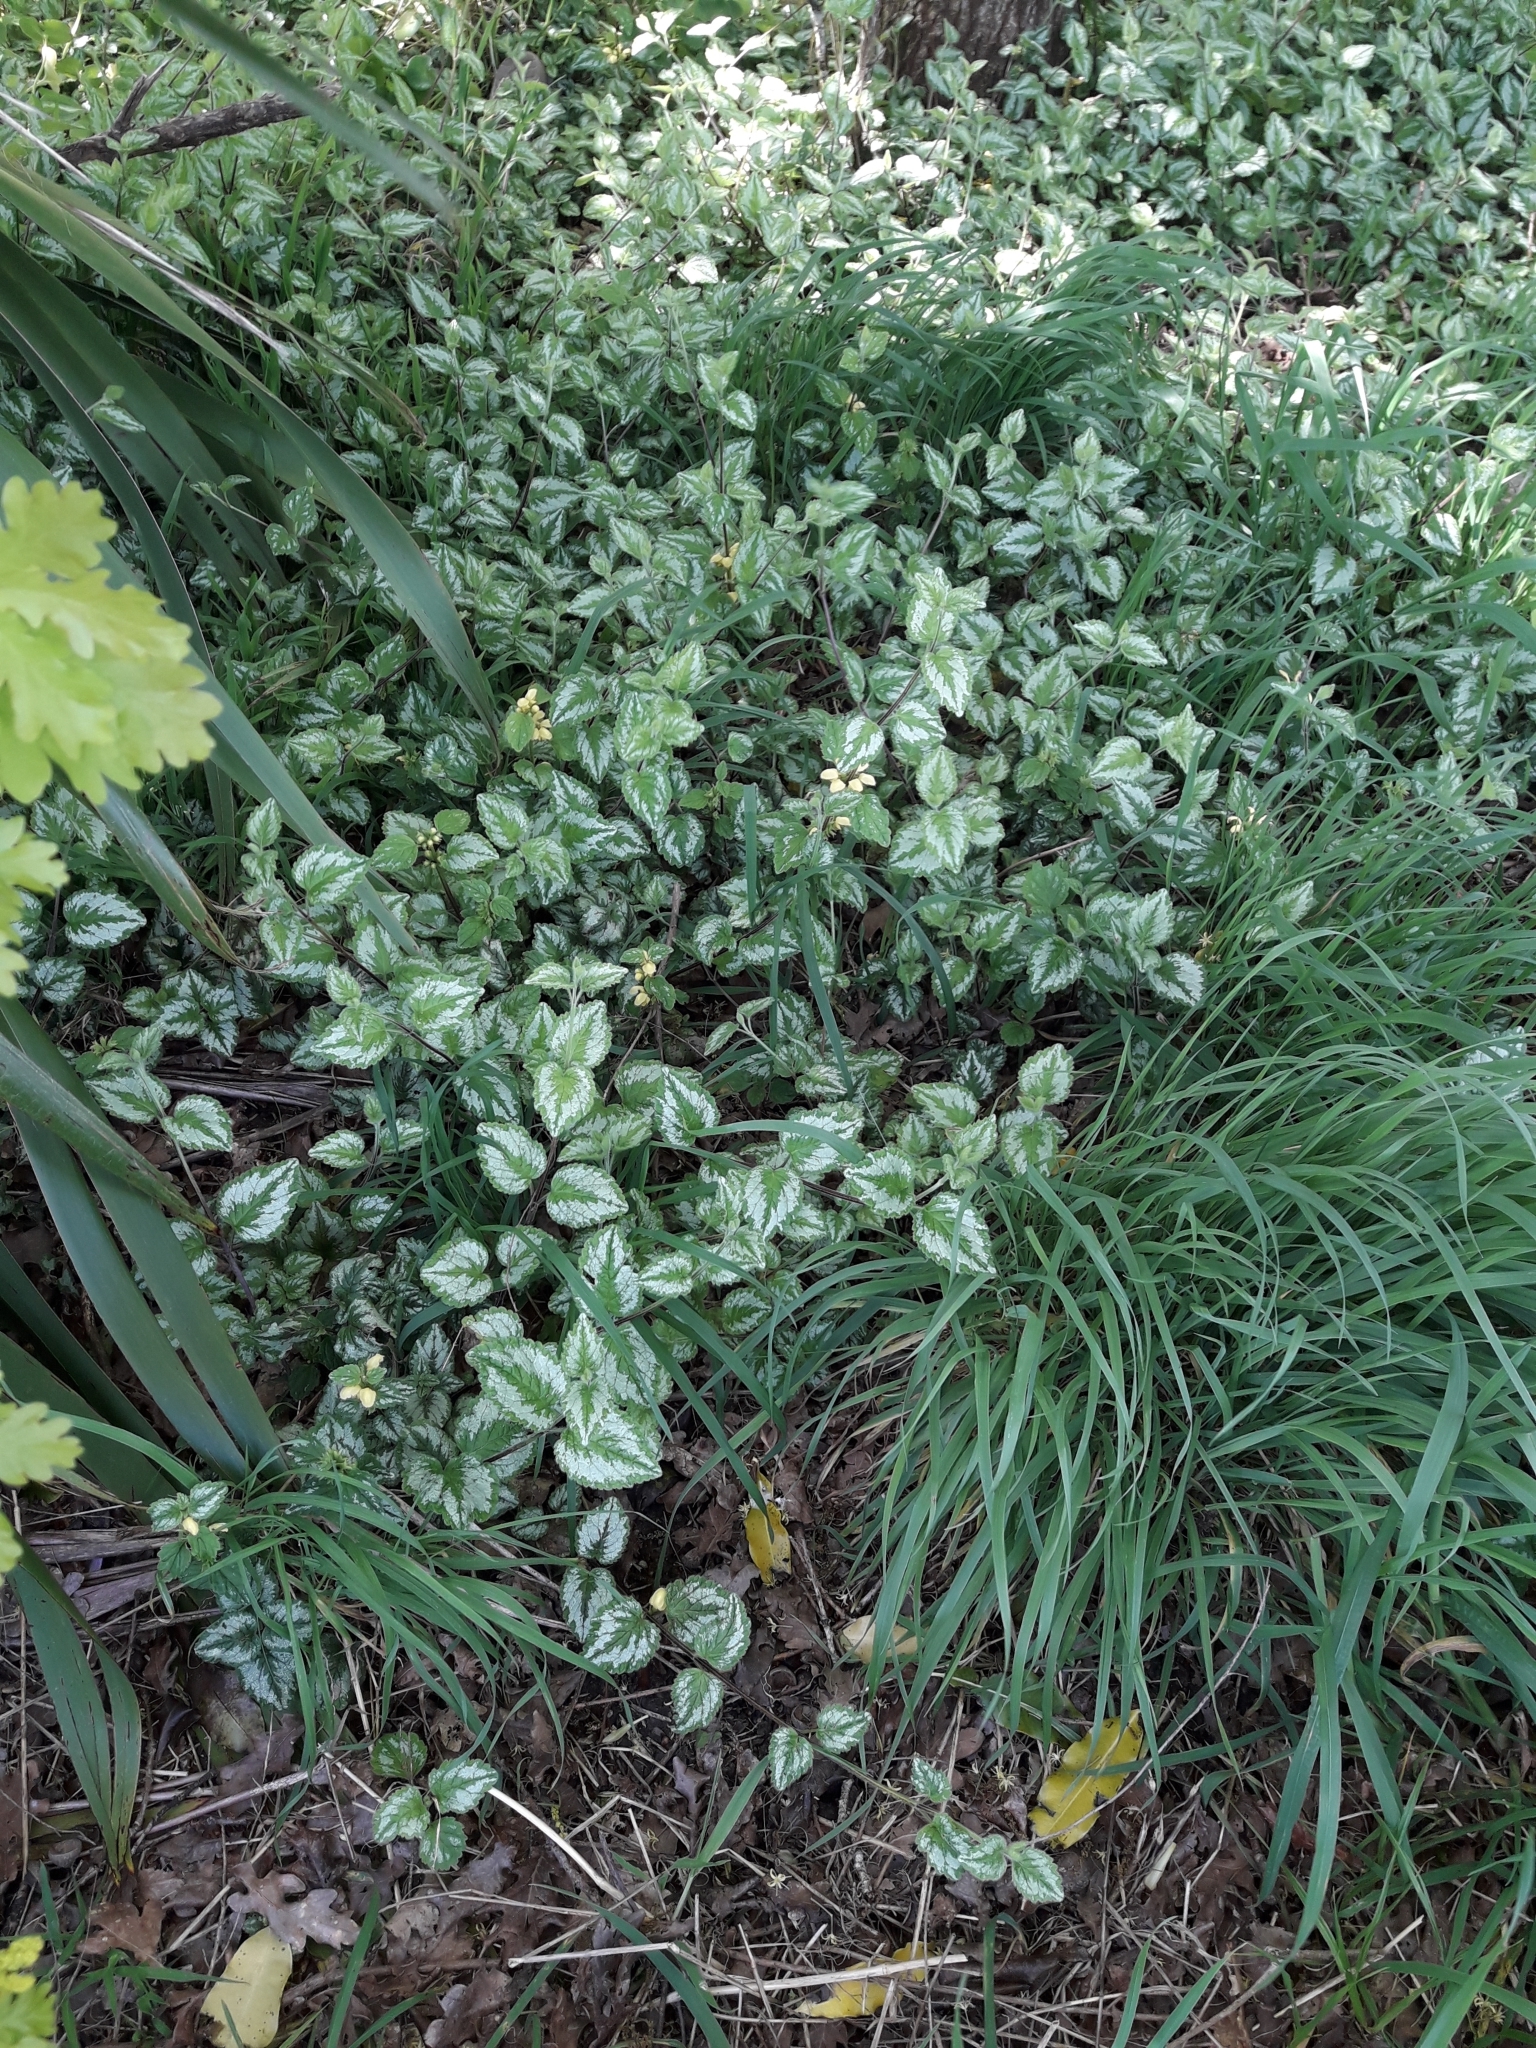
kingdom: Plantae
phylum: Tracheophyta
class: Magnoliopsida
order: Lamiales
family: Lamiaceae
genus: Lamium
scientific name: Lamium galeobdolon
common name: Yellow archangel
